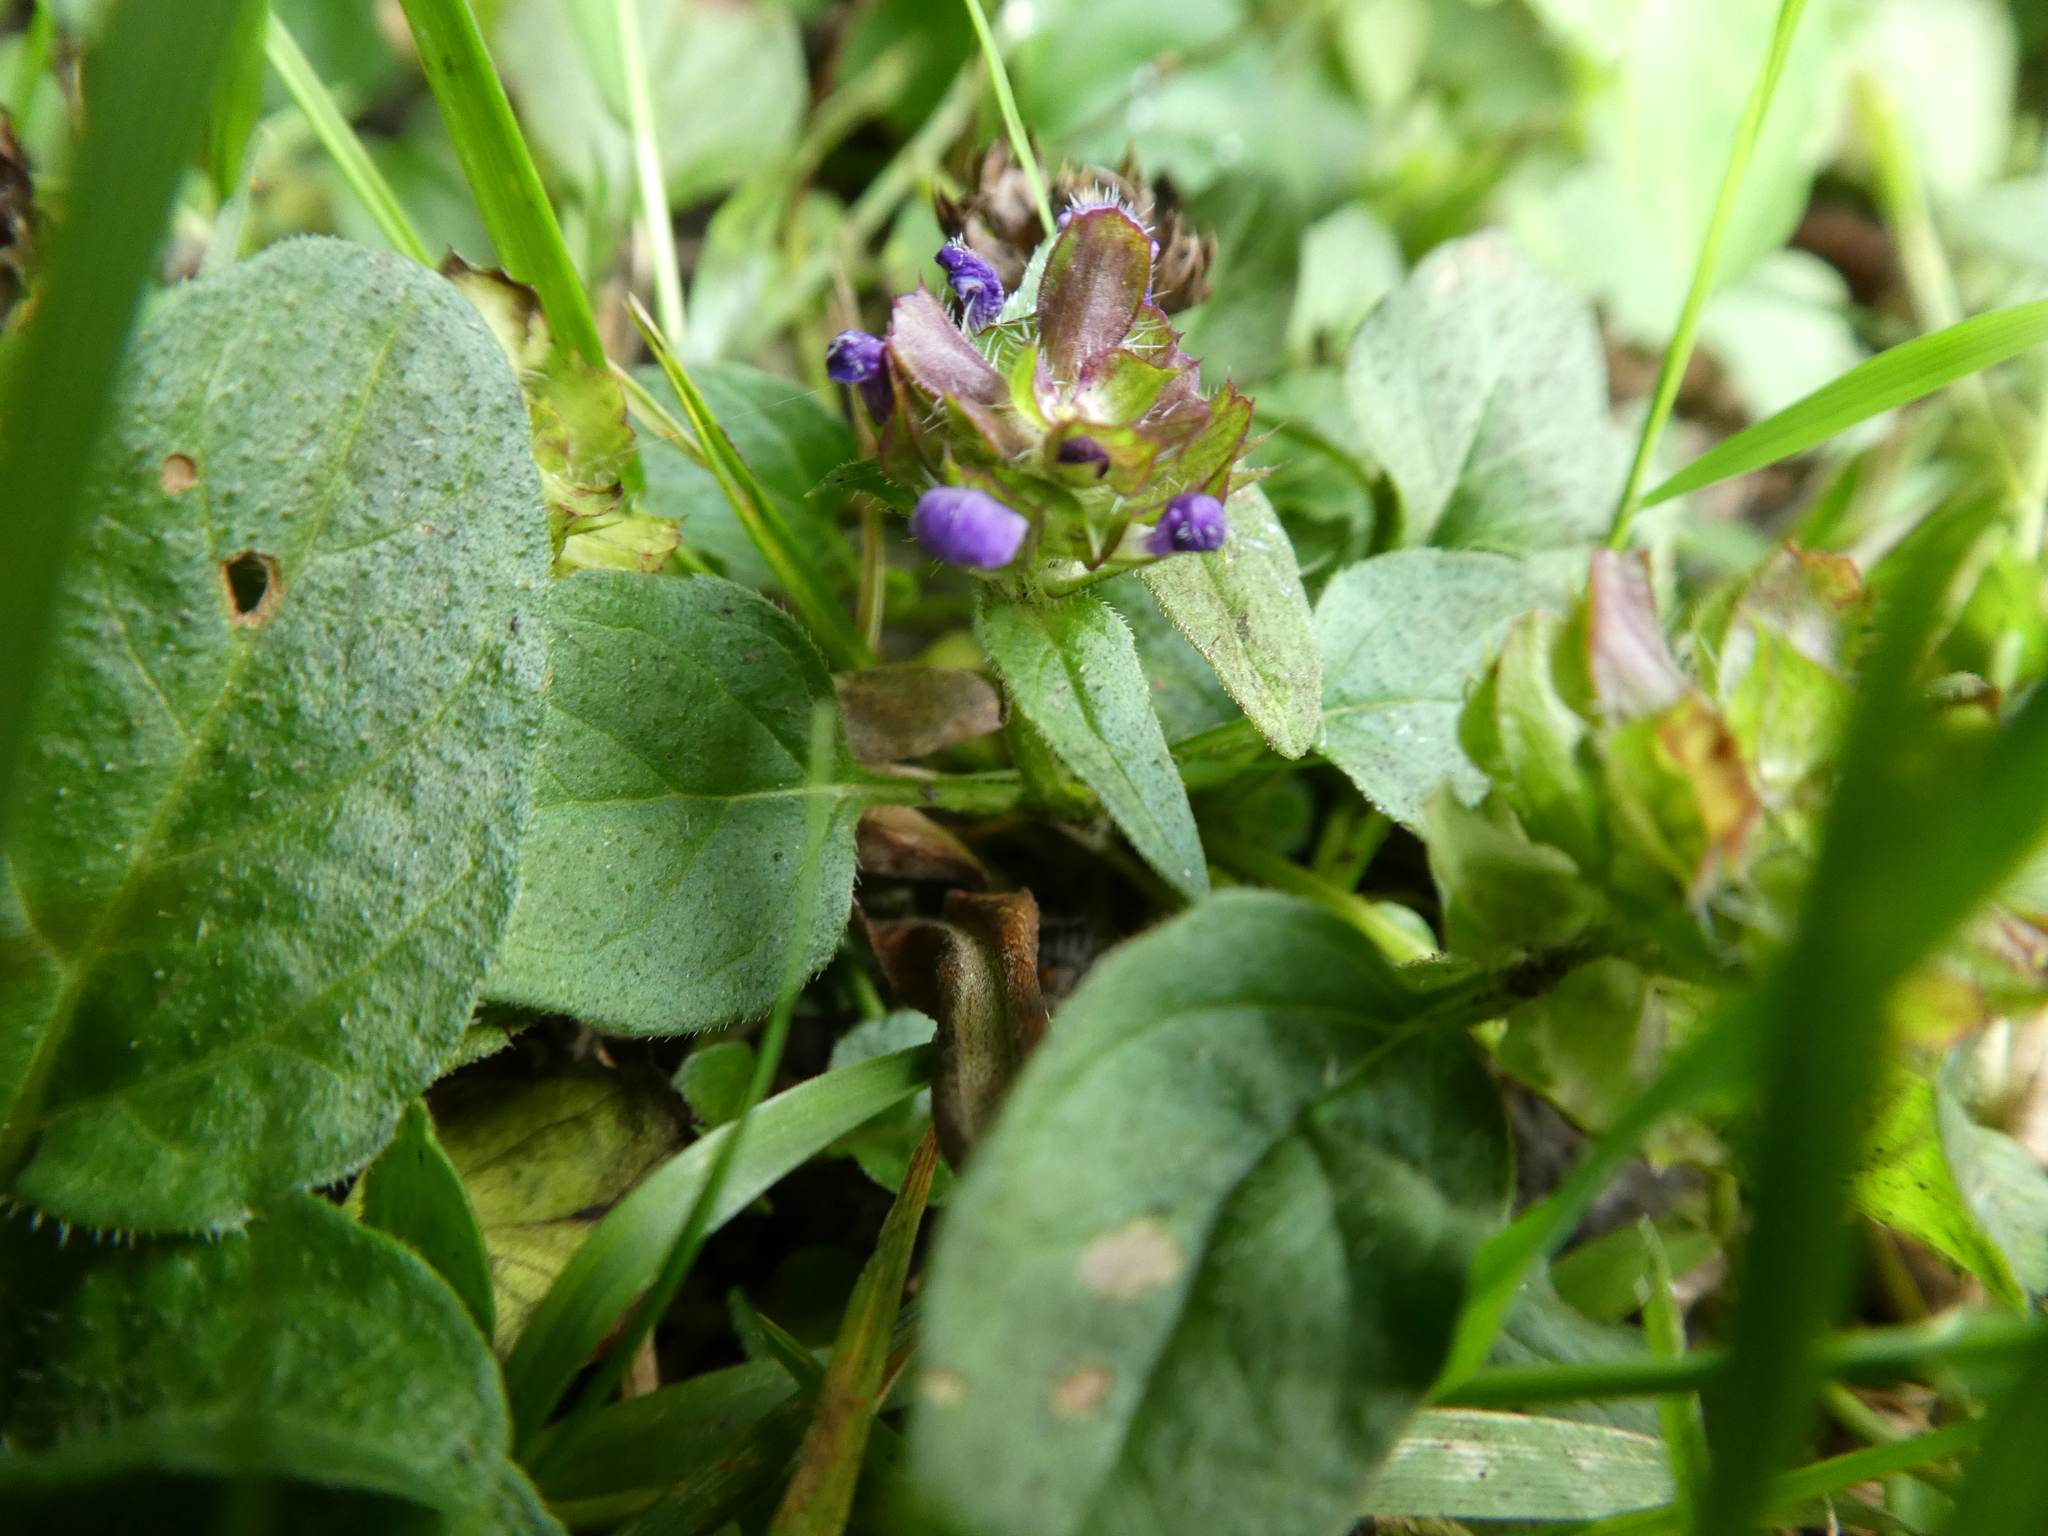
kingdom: Plantae
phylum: Tracheophyta
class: Magnoliopsida
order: Lamiales
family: Lamiaceae
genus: Prunella
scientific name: Prunella vulgaris
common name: Heal-all
